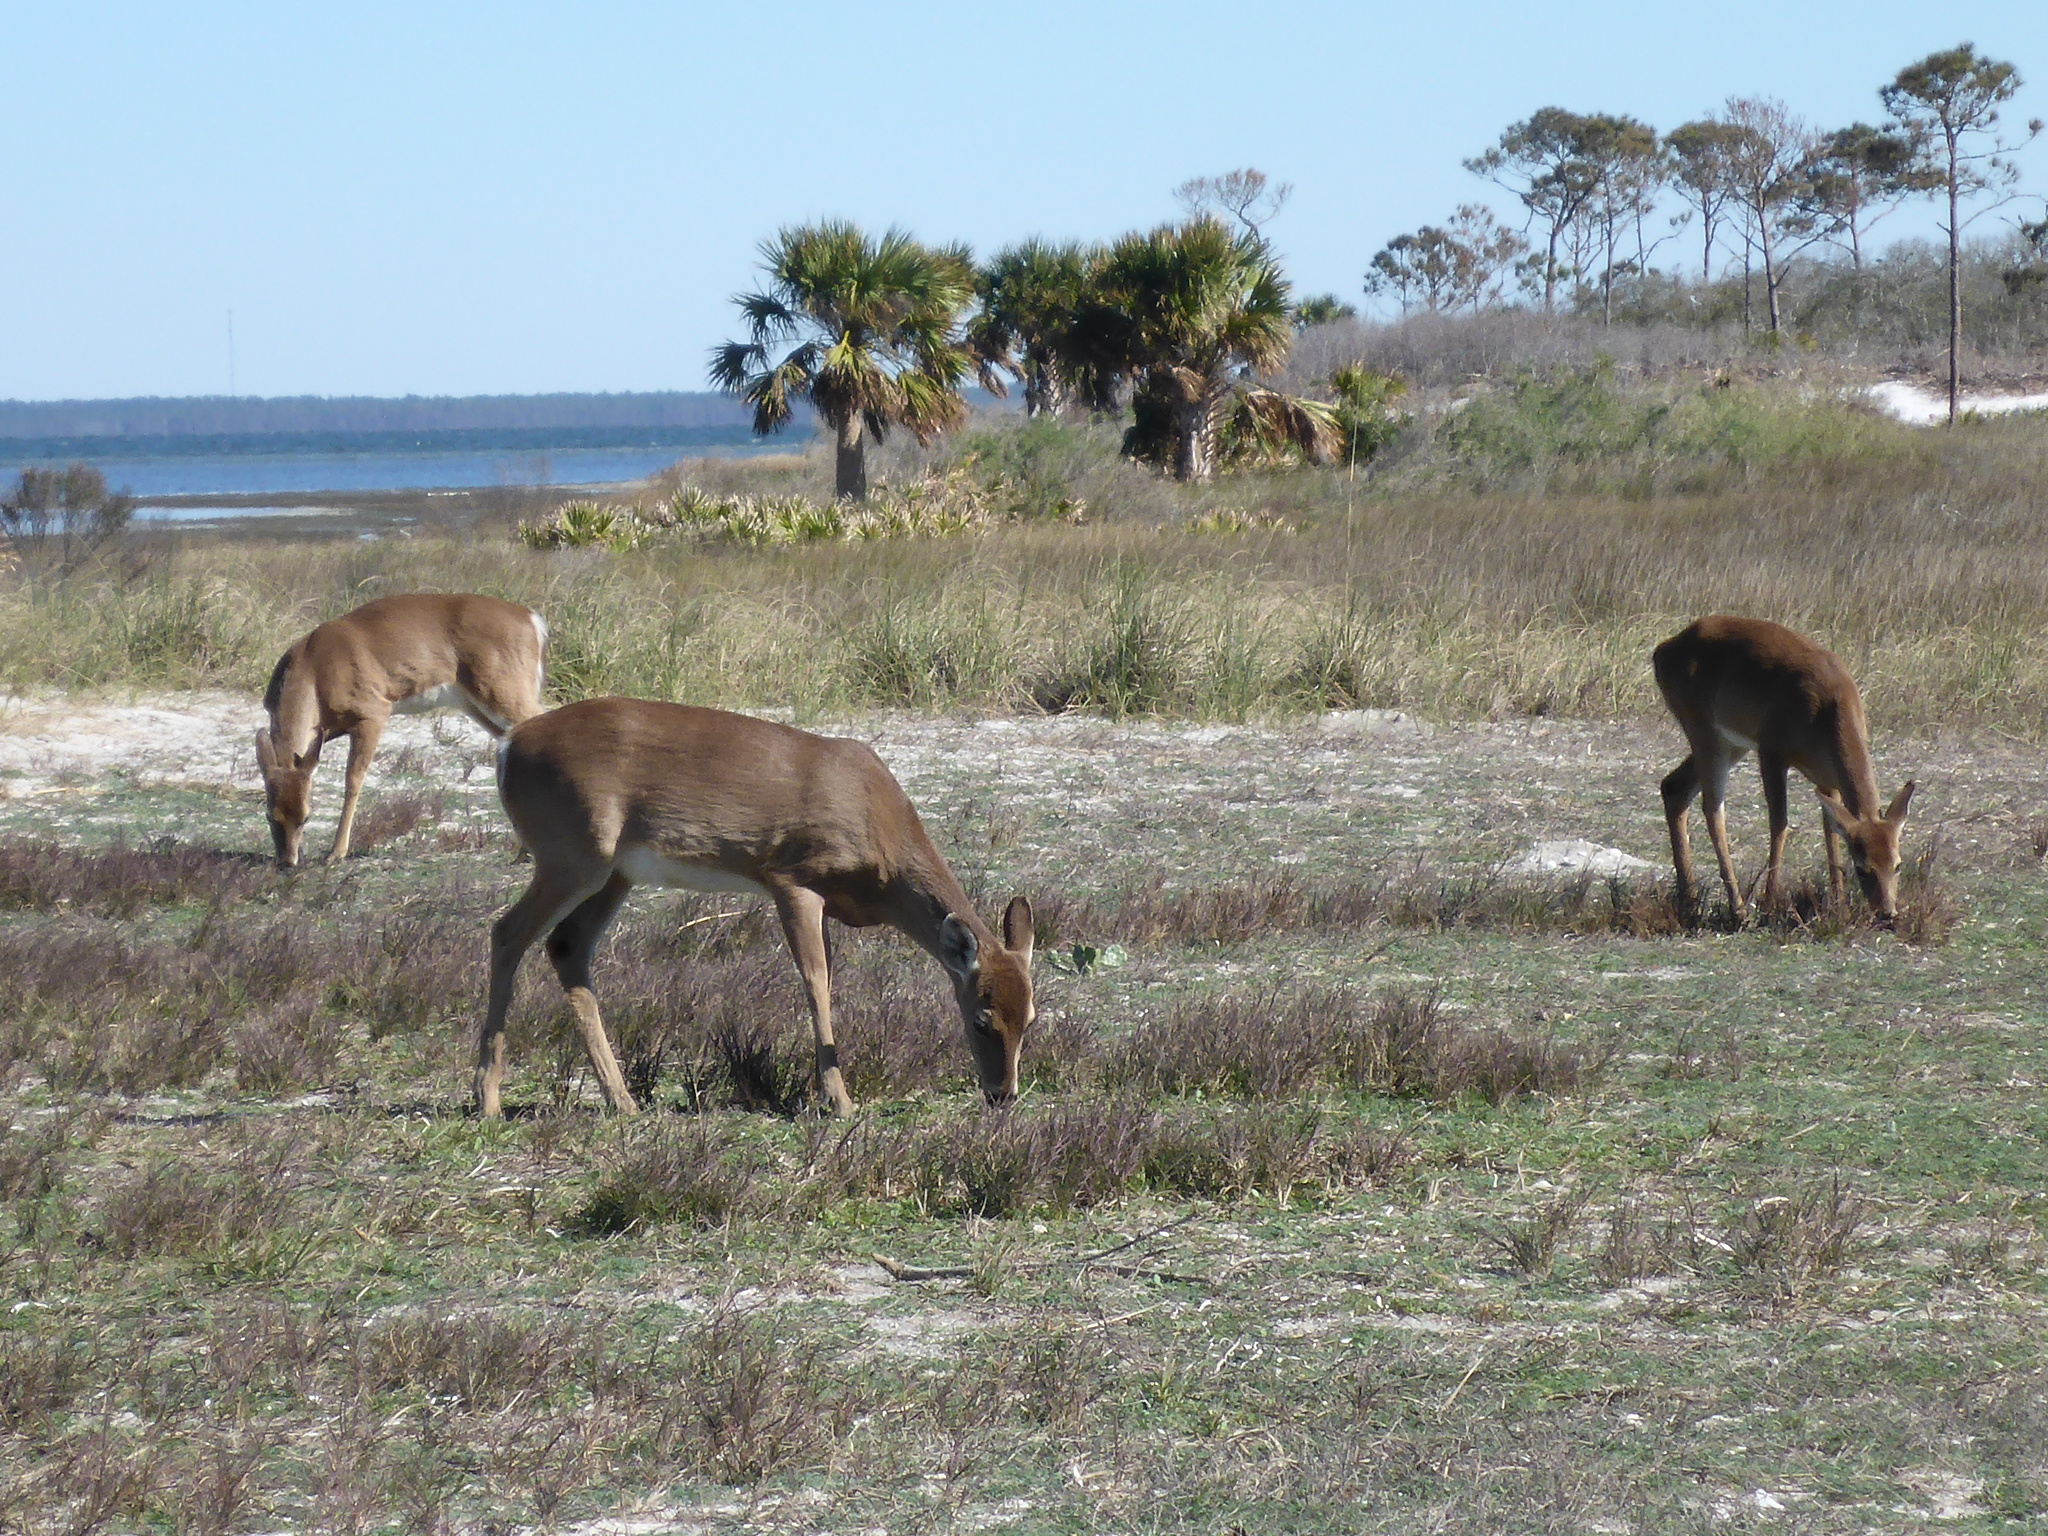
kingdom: Animalia
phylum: Chordata
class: Mammalia
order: Artiodactyla
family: Cervidae
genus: Odocoileus
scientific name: Odocoileus virginianus
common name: White-tailed deer
